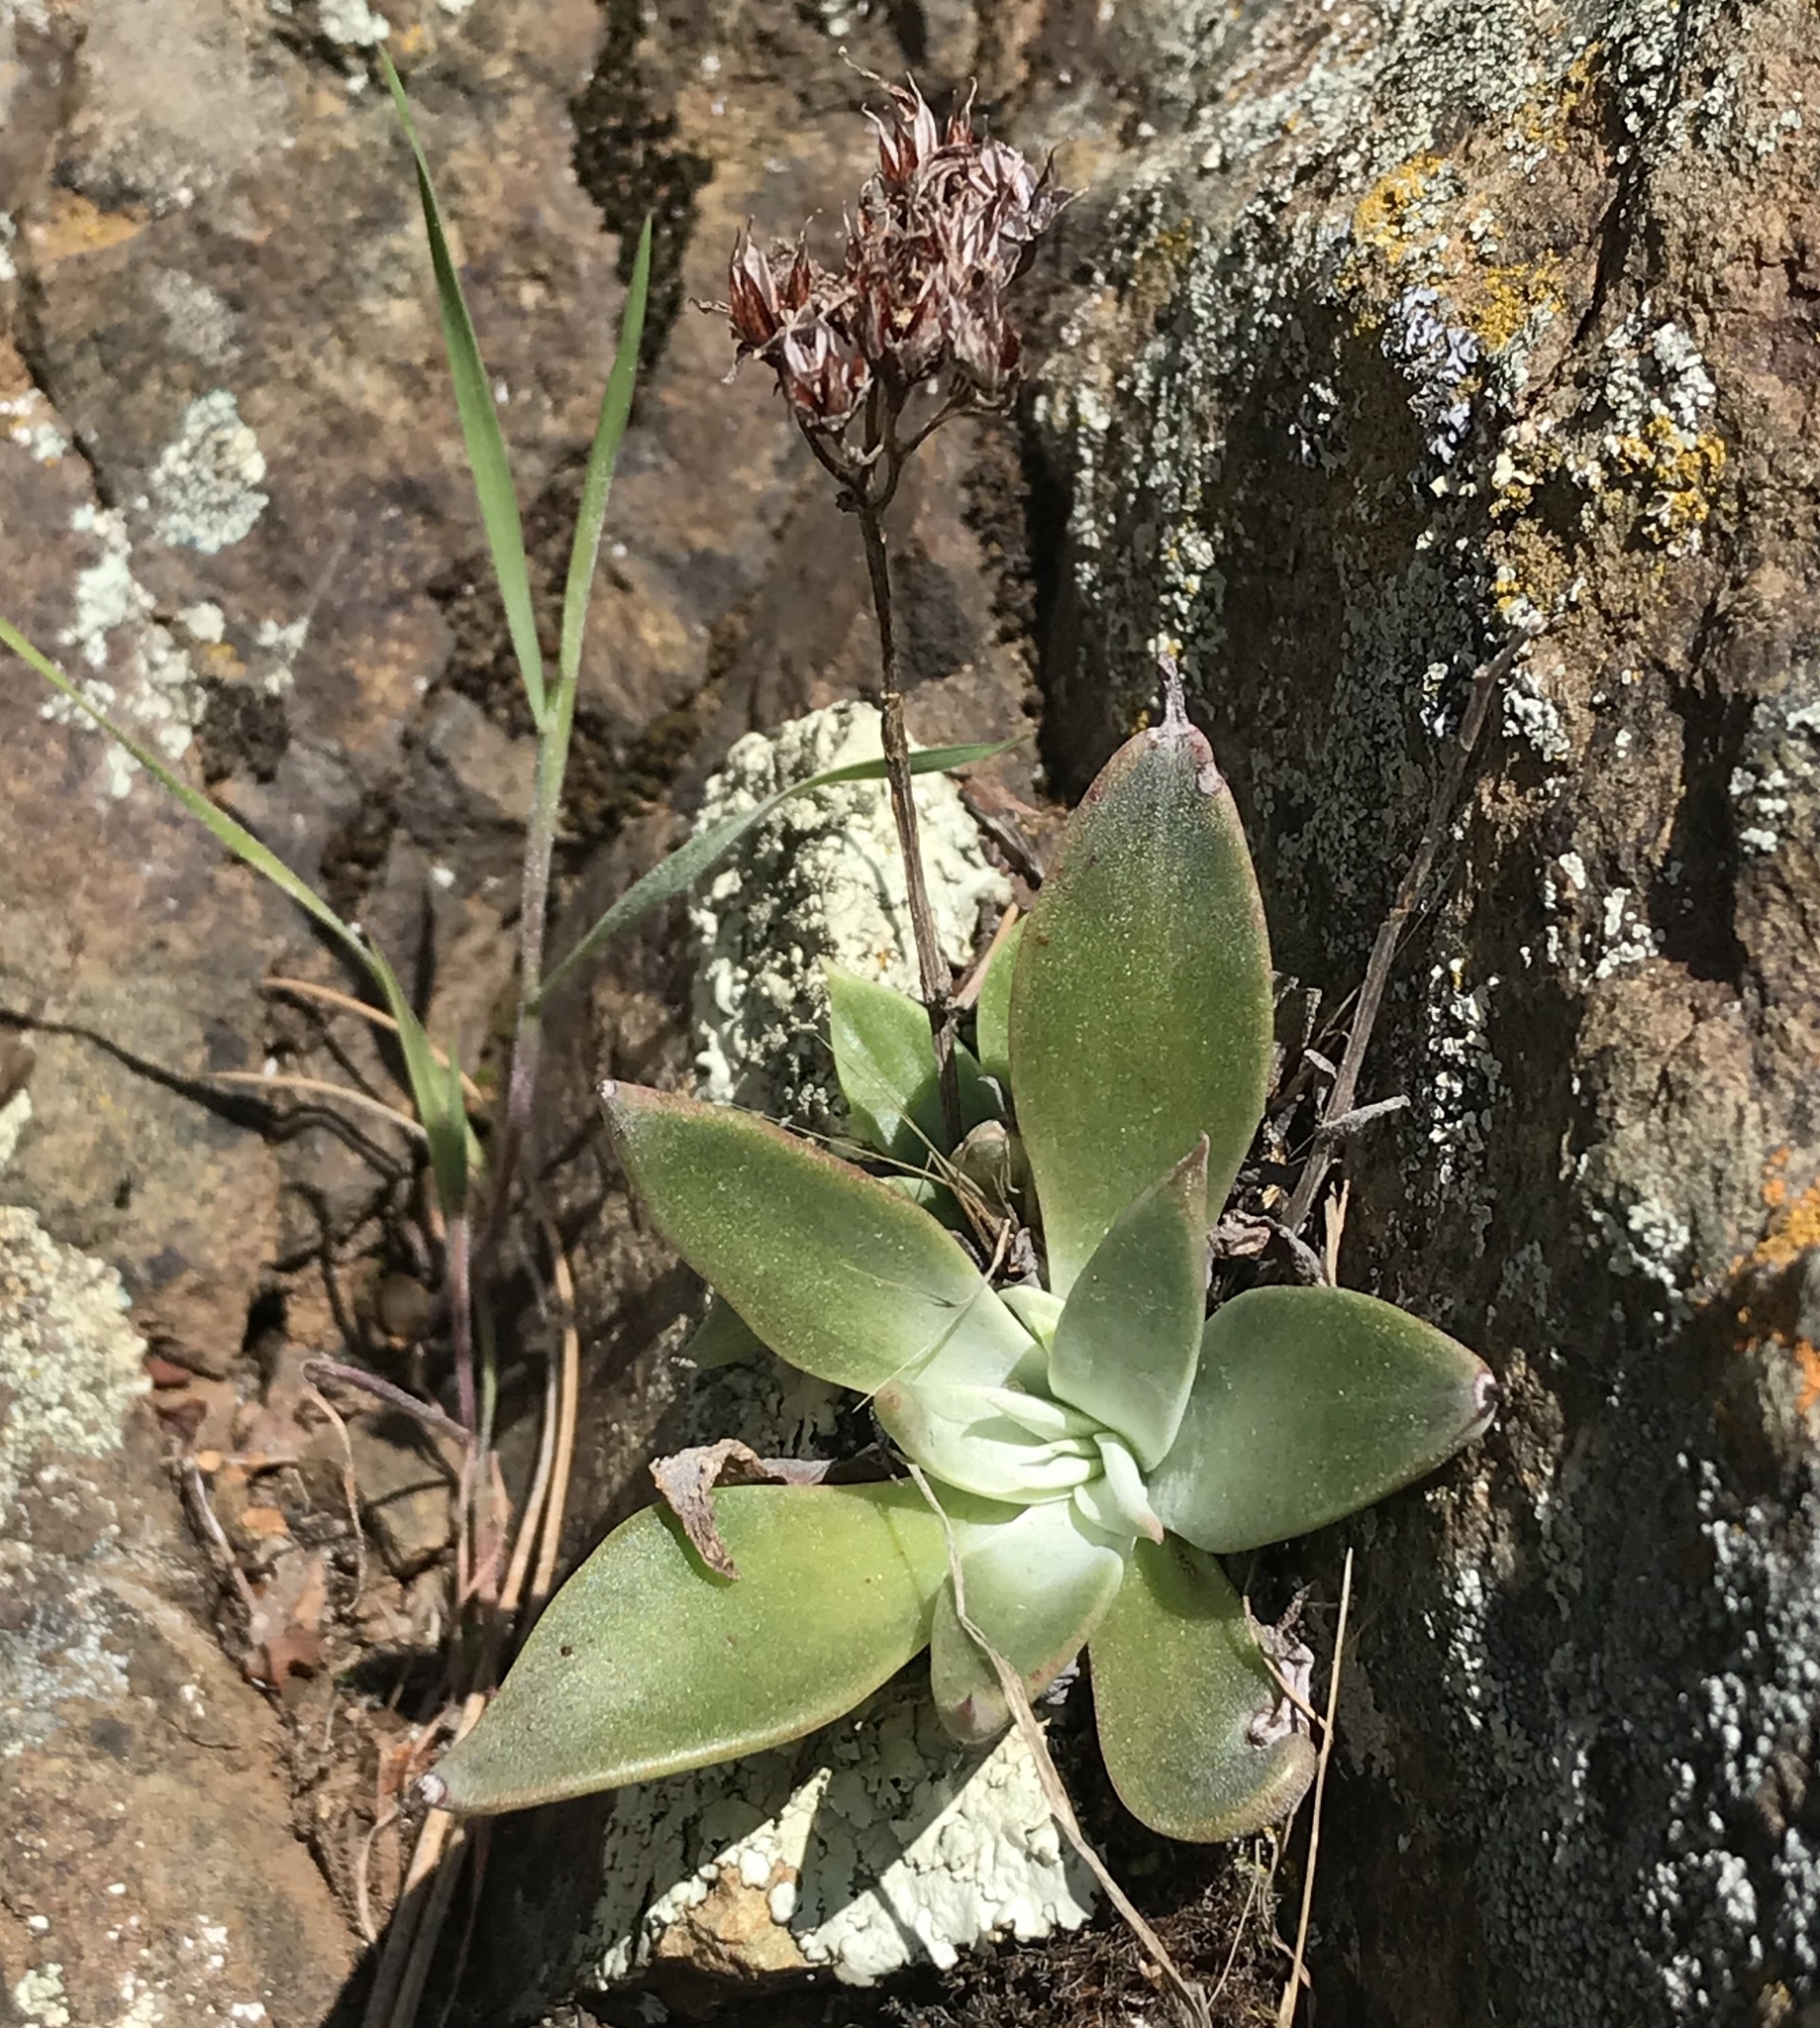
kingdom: Plantae
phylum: Tracheophyta
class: Magnoliopsida
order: Saxifragales
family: Crassulaceae
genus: Dudleya
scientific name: Dudleya cymosa
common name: Canyon dudleya
